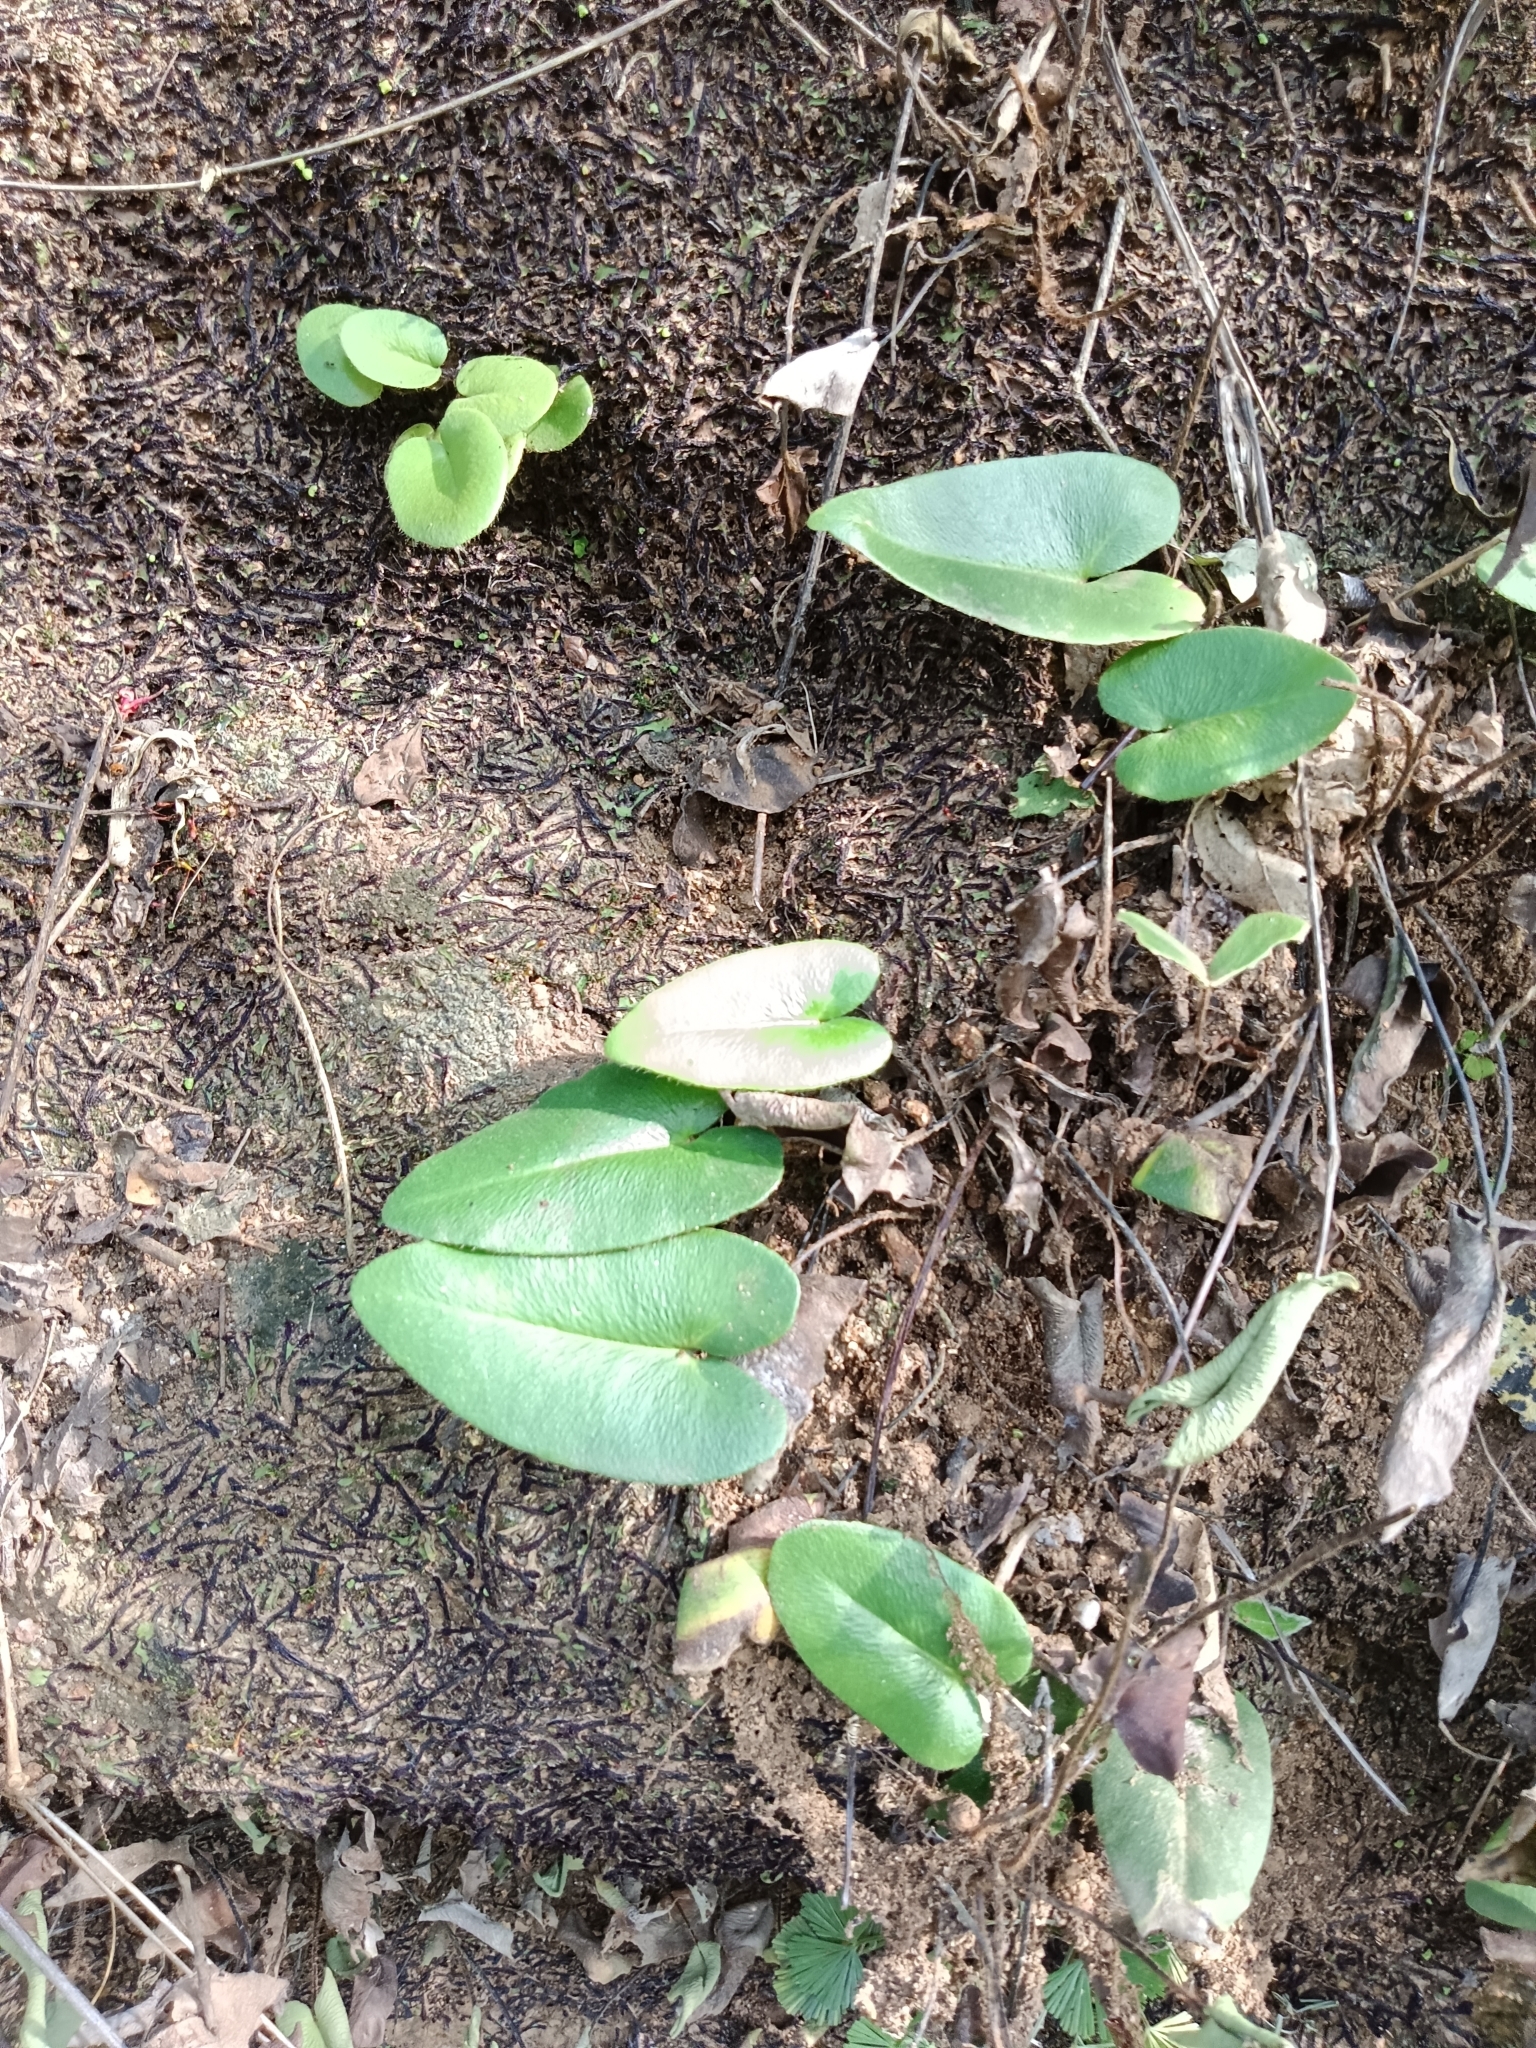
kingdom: Plantae
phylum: Tracheophyta
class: Polypodiopsida
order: Polypodiales
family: Pteridaceae
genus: Mickelopteris
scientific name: Mickelopteris cordata
